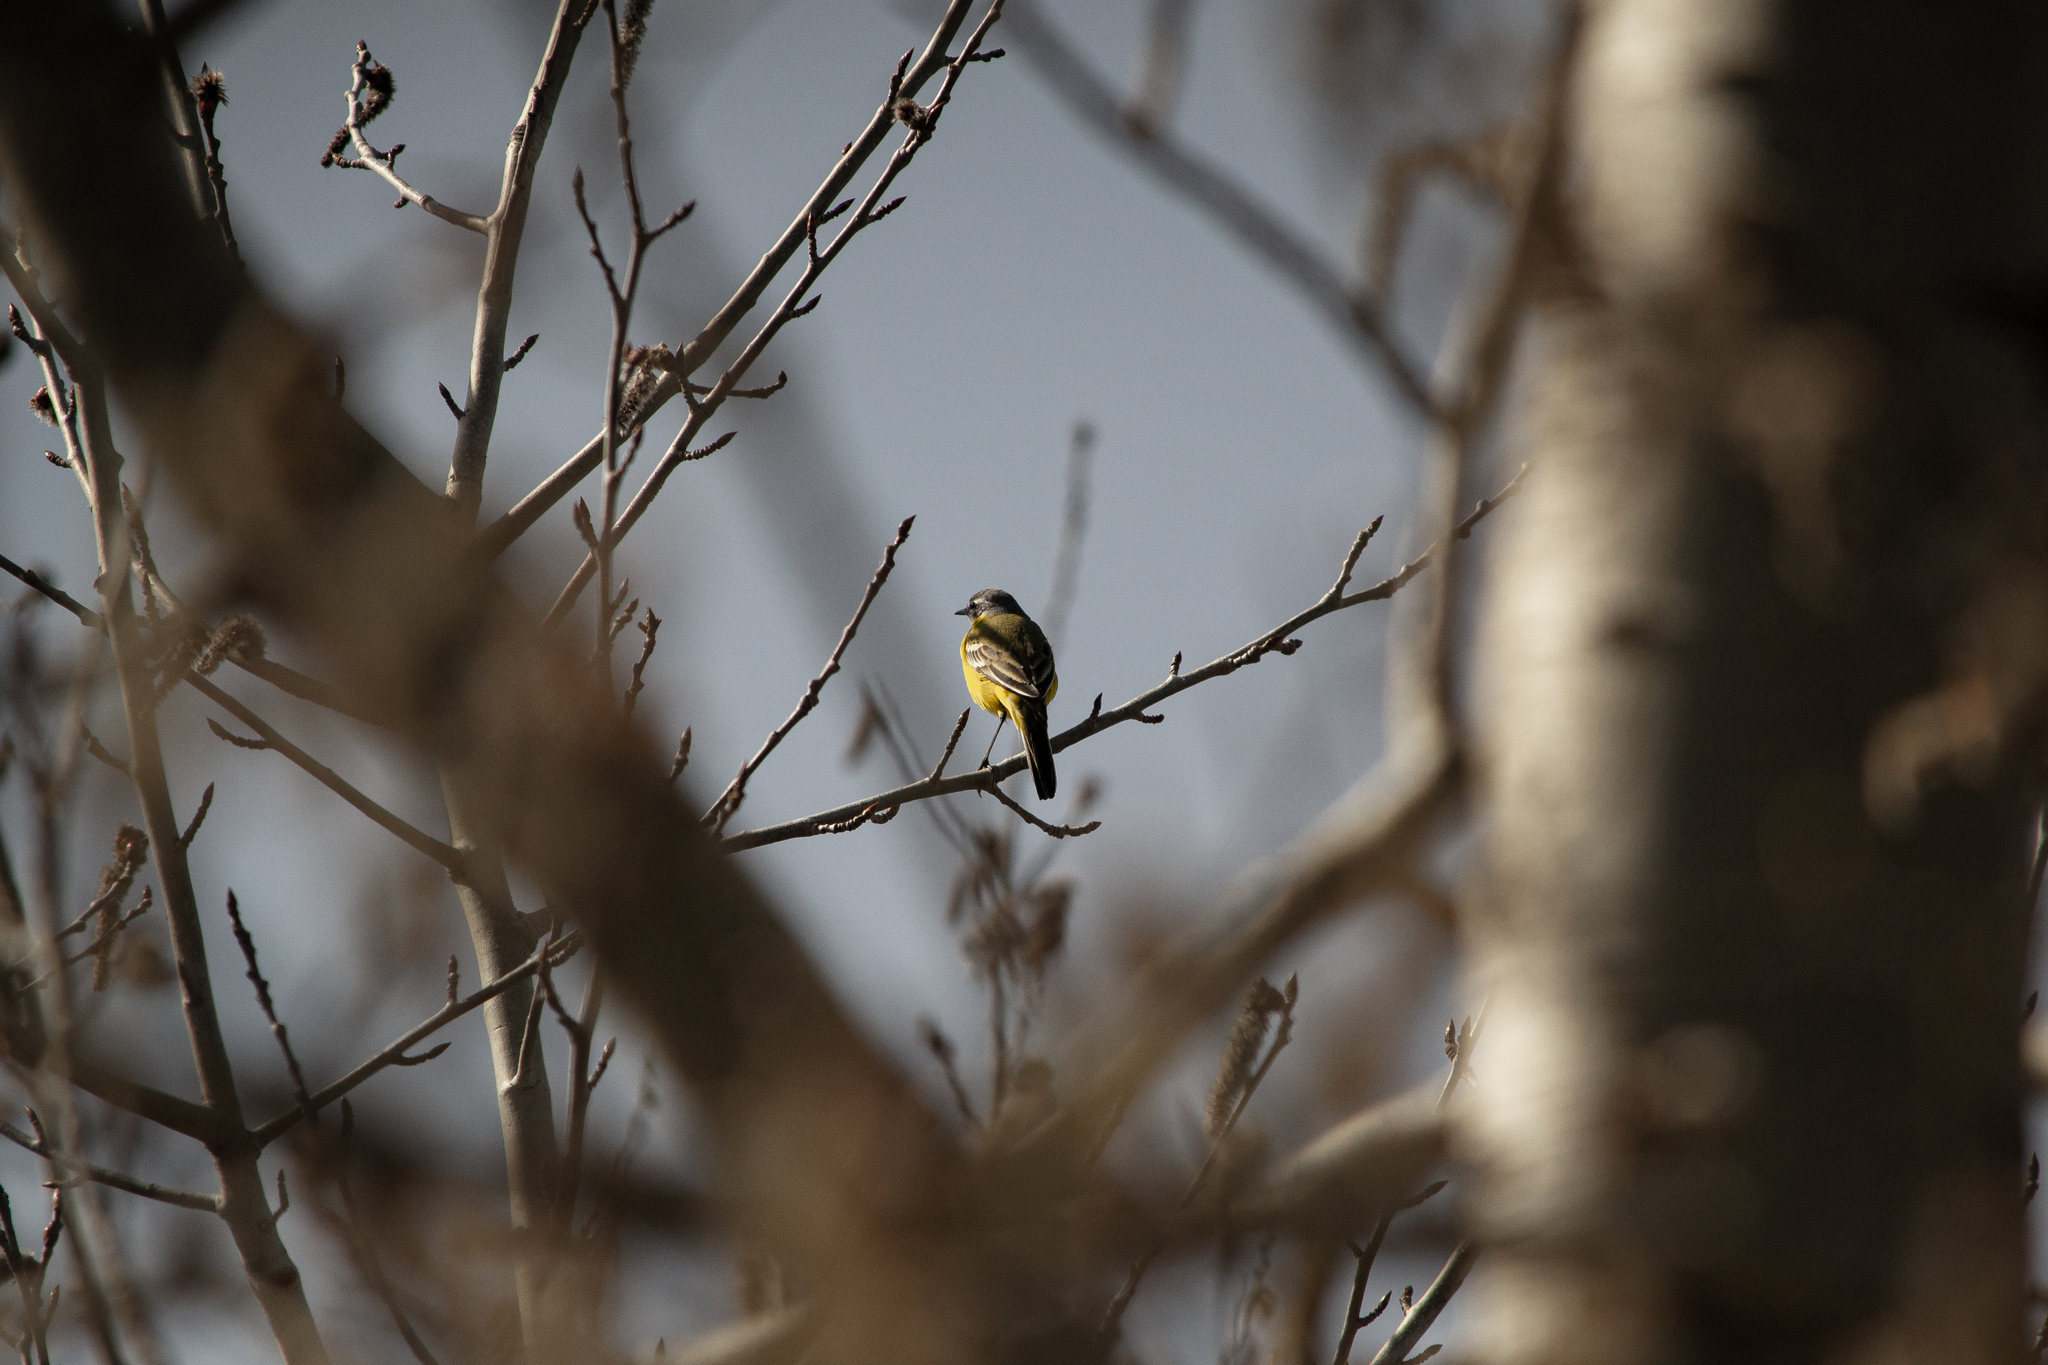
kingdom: Animalia
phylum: Chordata
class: Aves
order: Passeriformes
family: Motacillidae
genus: Motacilla
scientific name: Motacilla flava
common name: Western yellow wagtail
